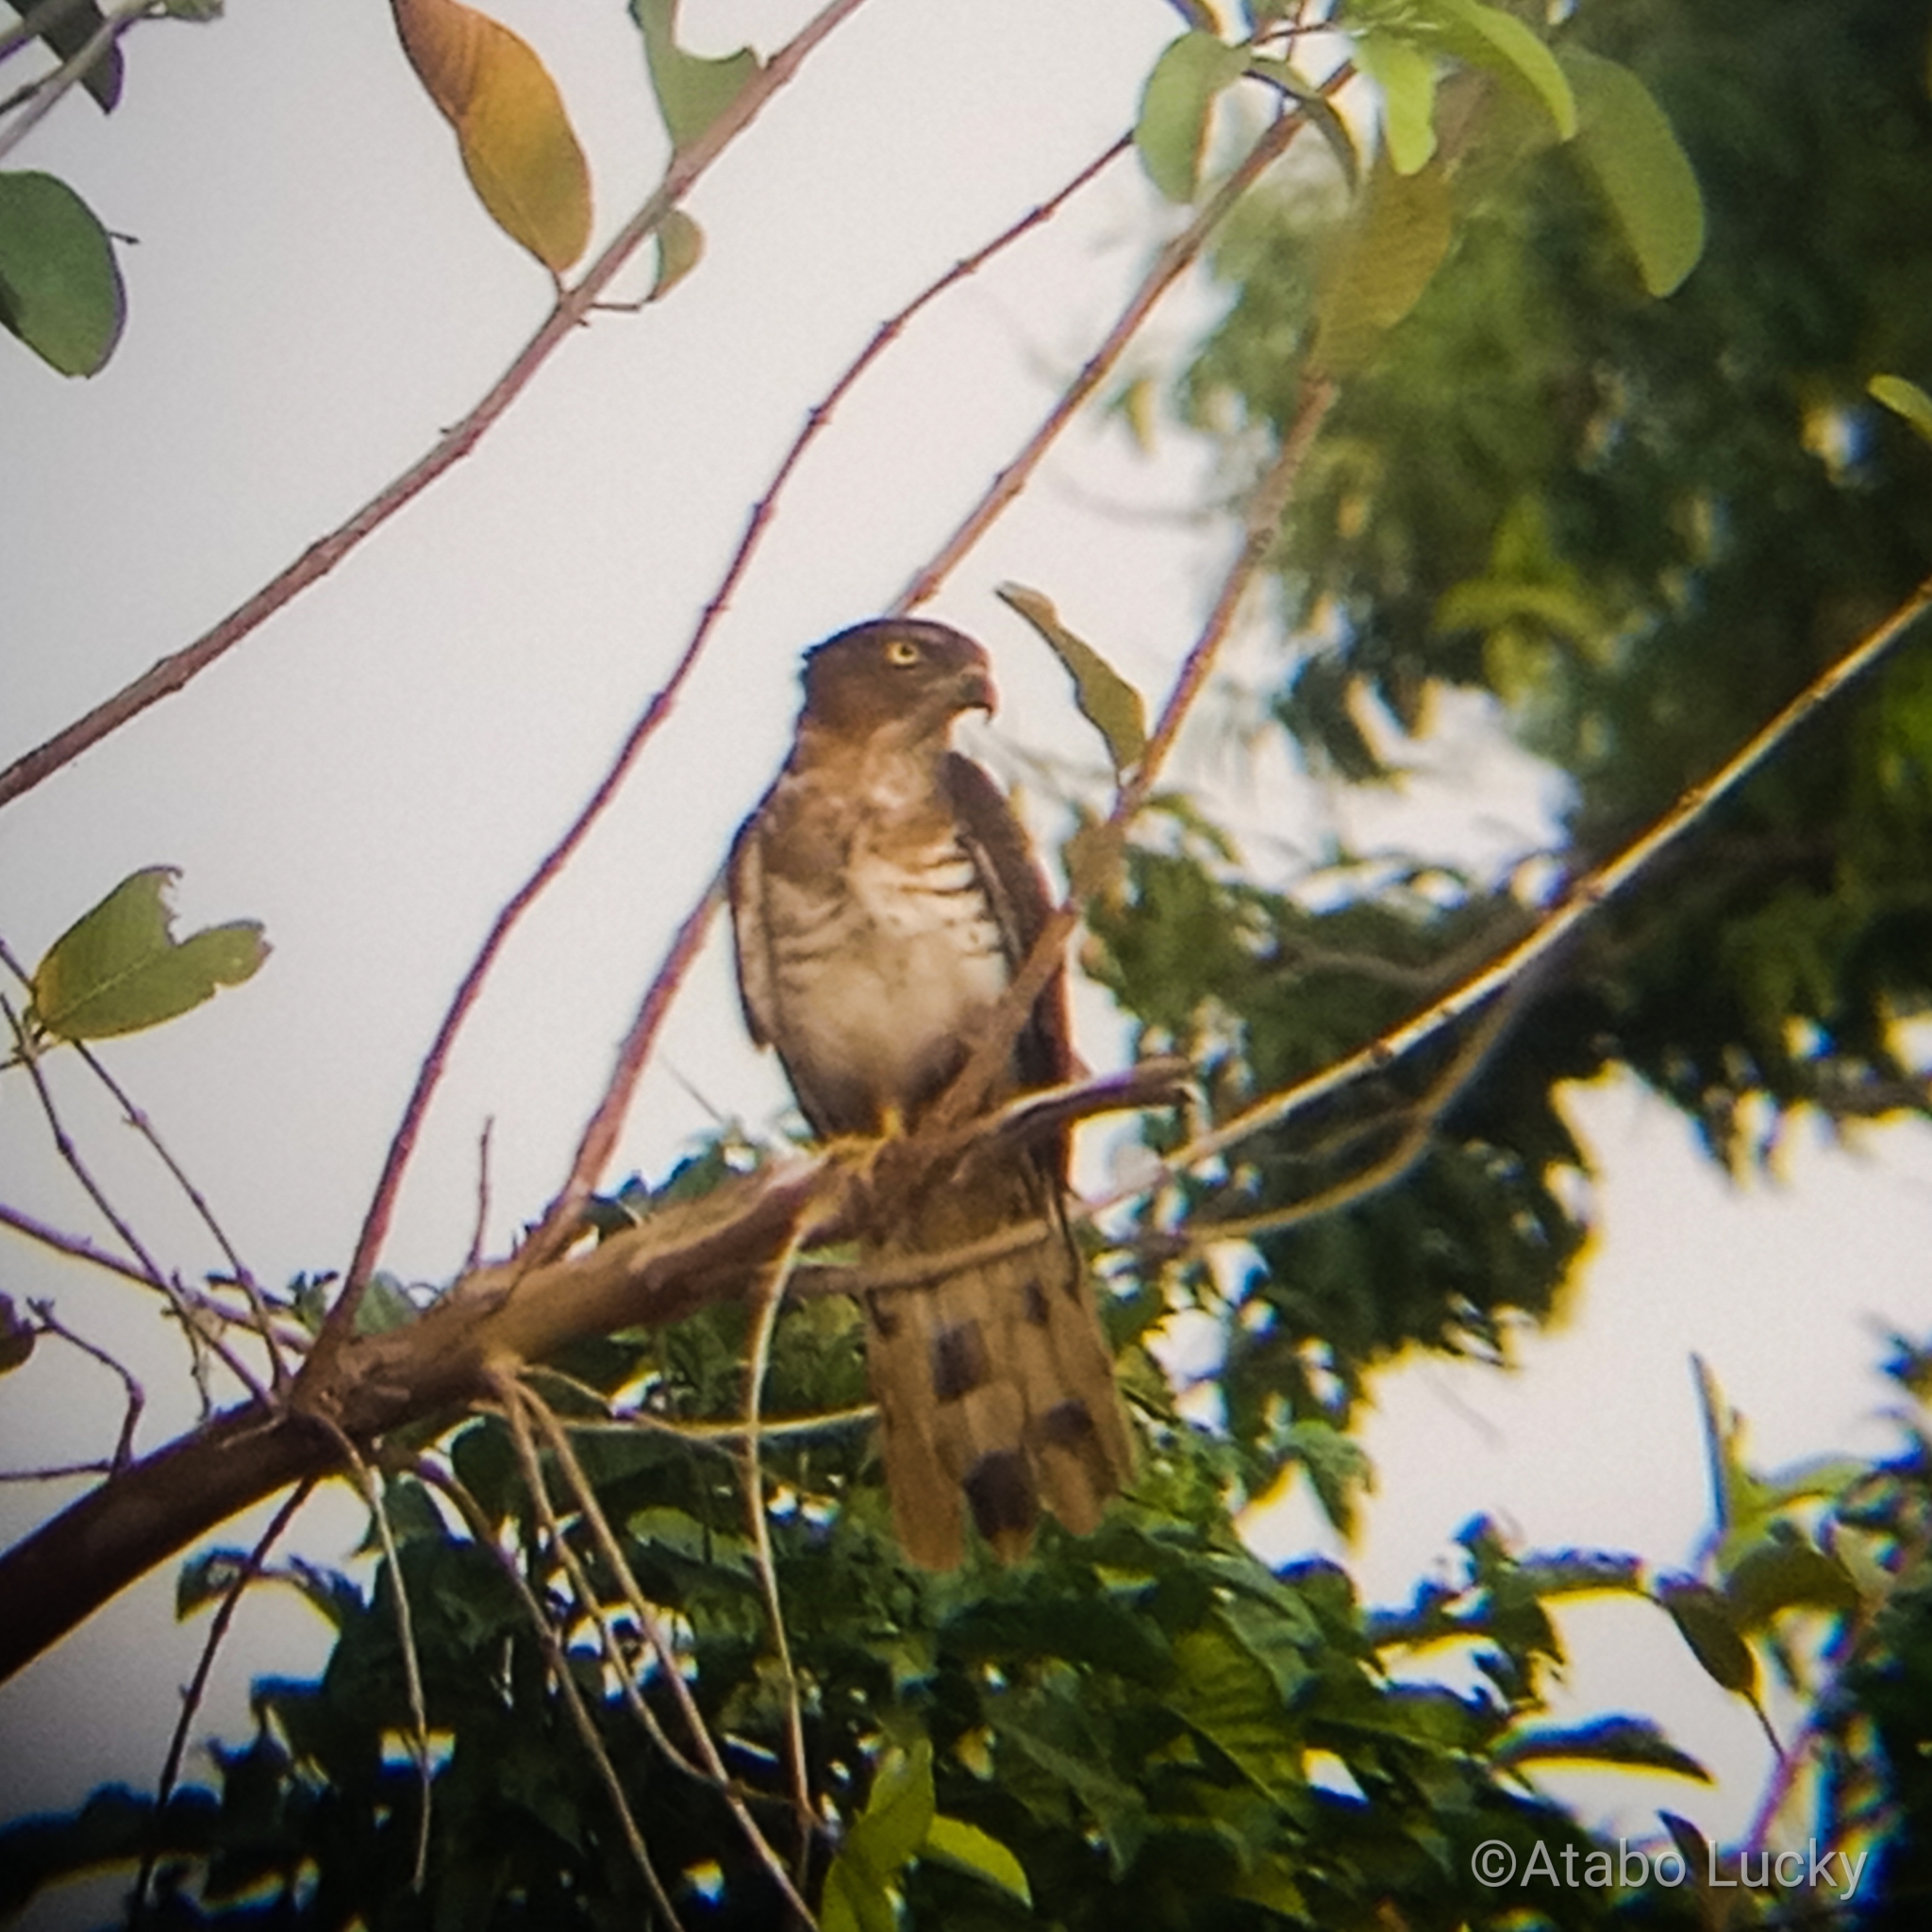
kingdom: Animalia
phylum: Chordata
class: Aves
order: Accipitriformes
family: Accipitridae
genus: Aviceda
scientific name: Aviceda cuculoides
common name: African cuckoo-hawk
